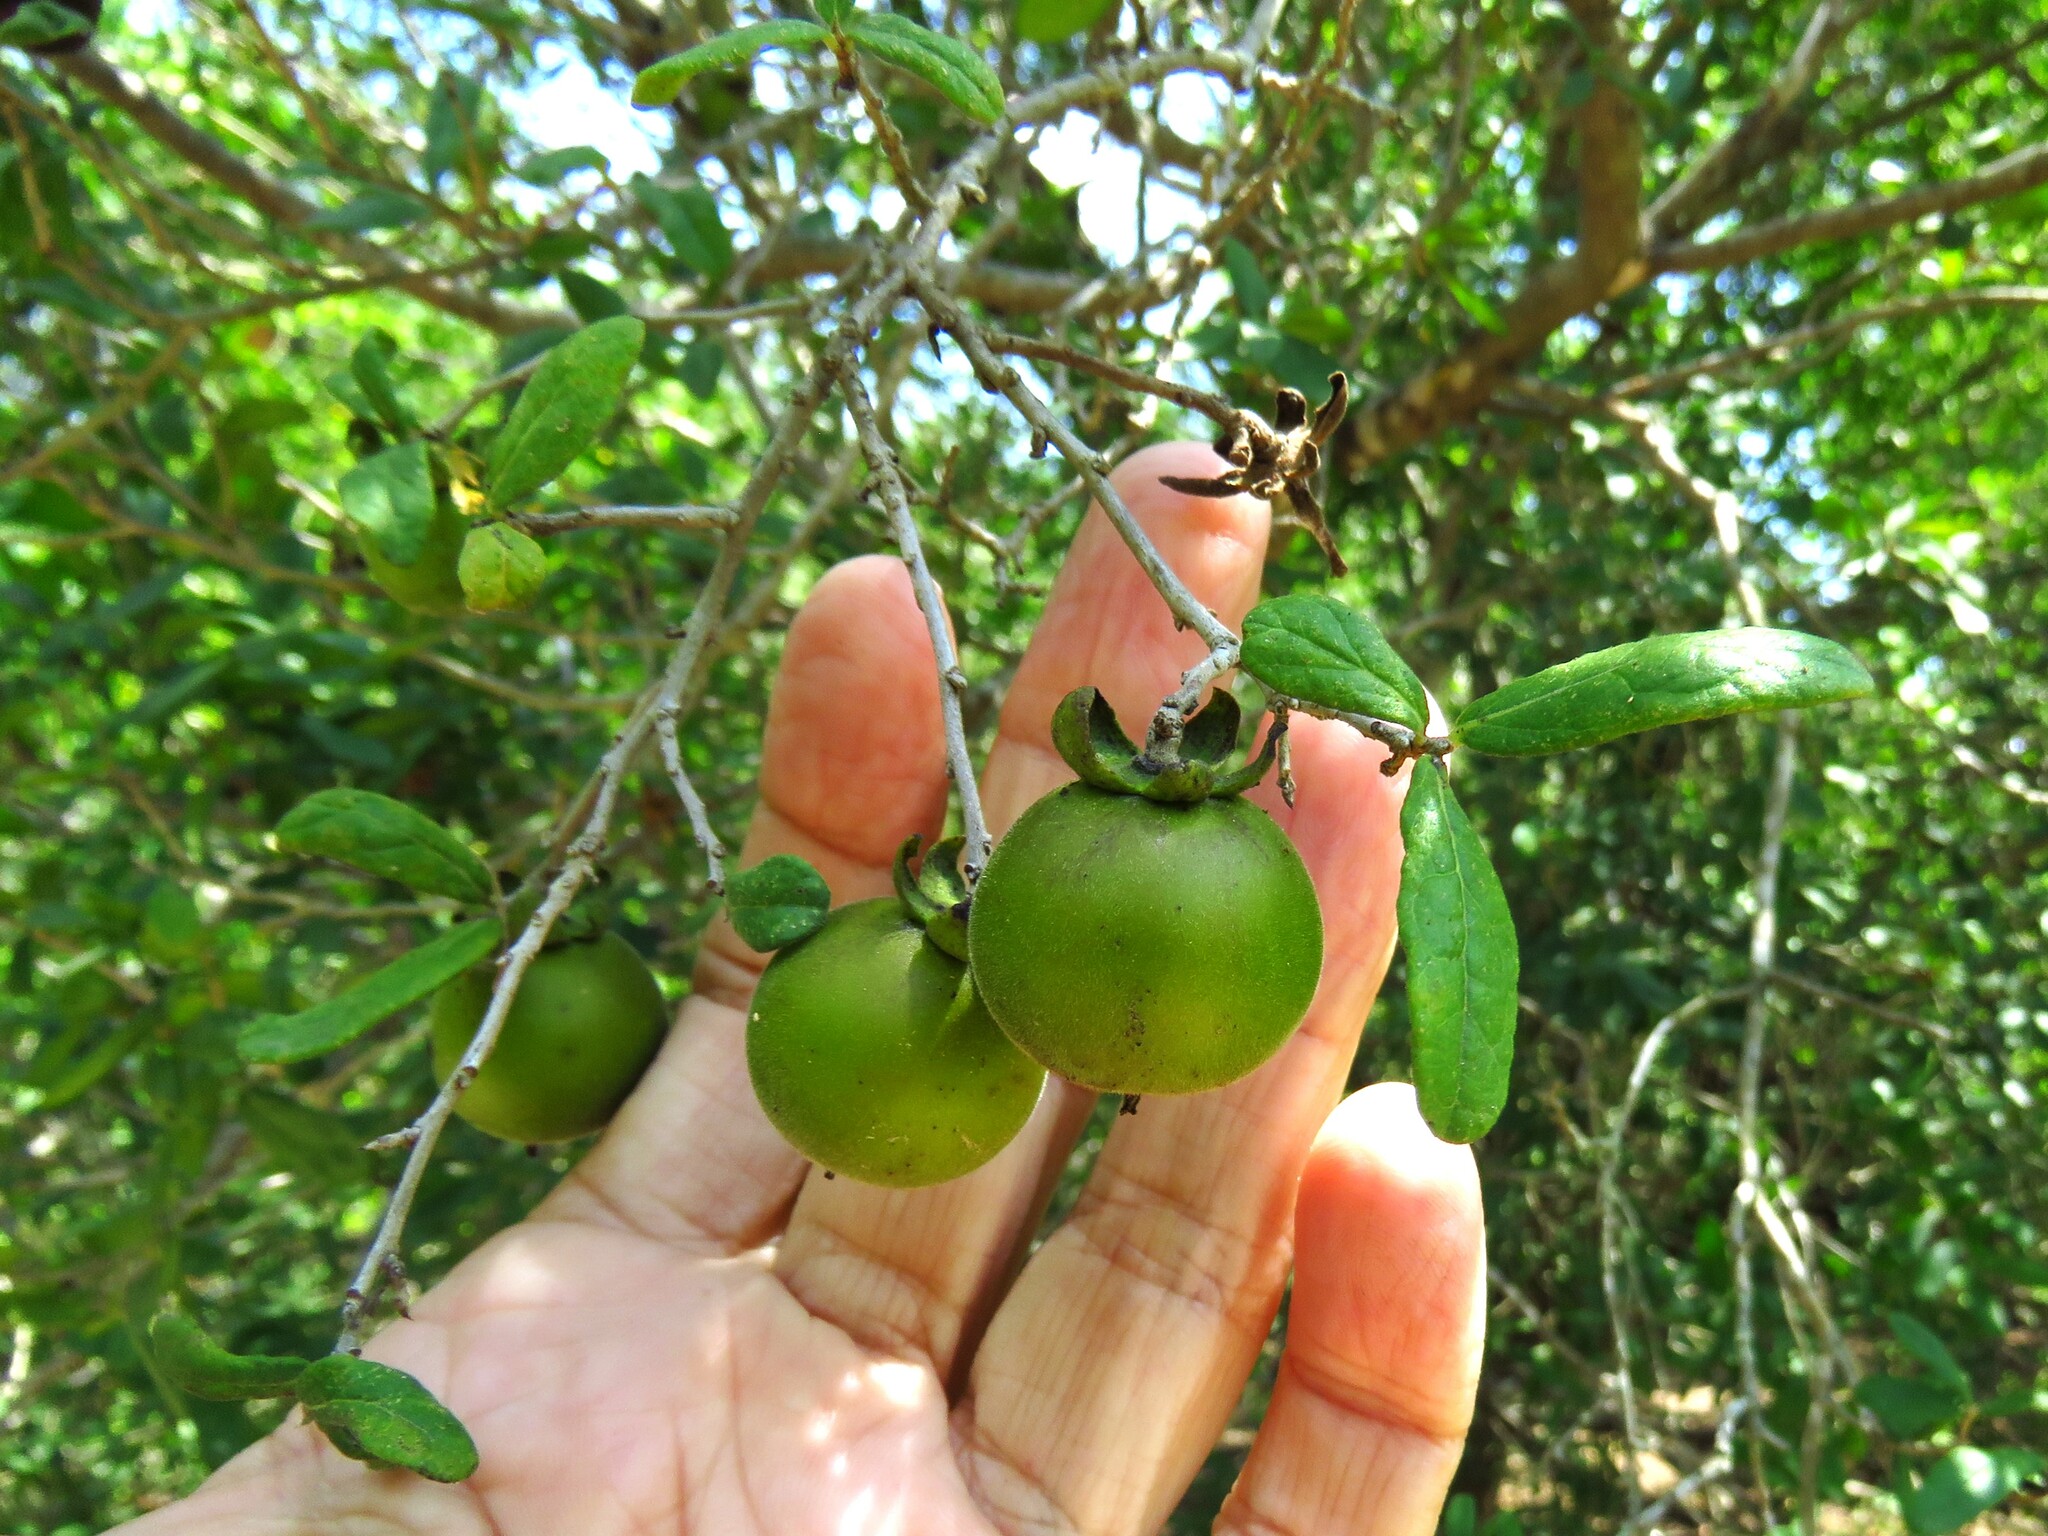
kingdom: Plantae
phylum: Tracheophyta
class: Magnoliopsida
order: Ericales
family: Ebenaceae
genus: Diospyros
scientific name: Diospyros texana
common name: Texas persimmon
